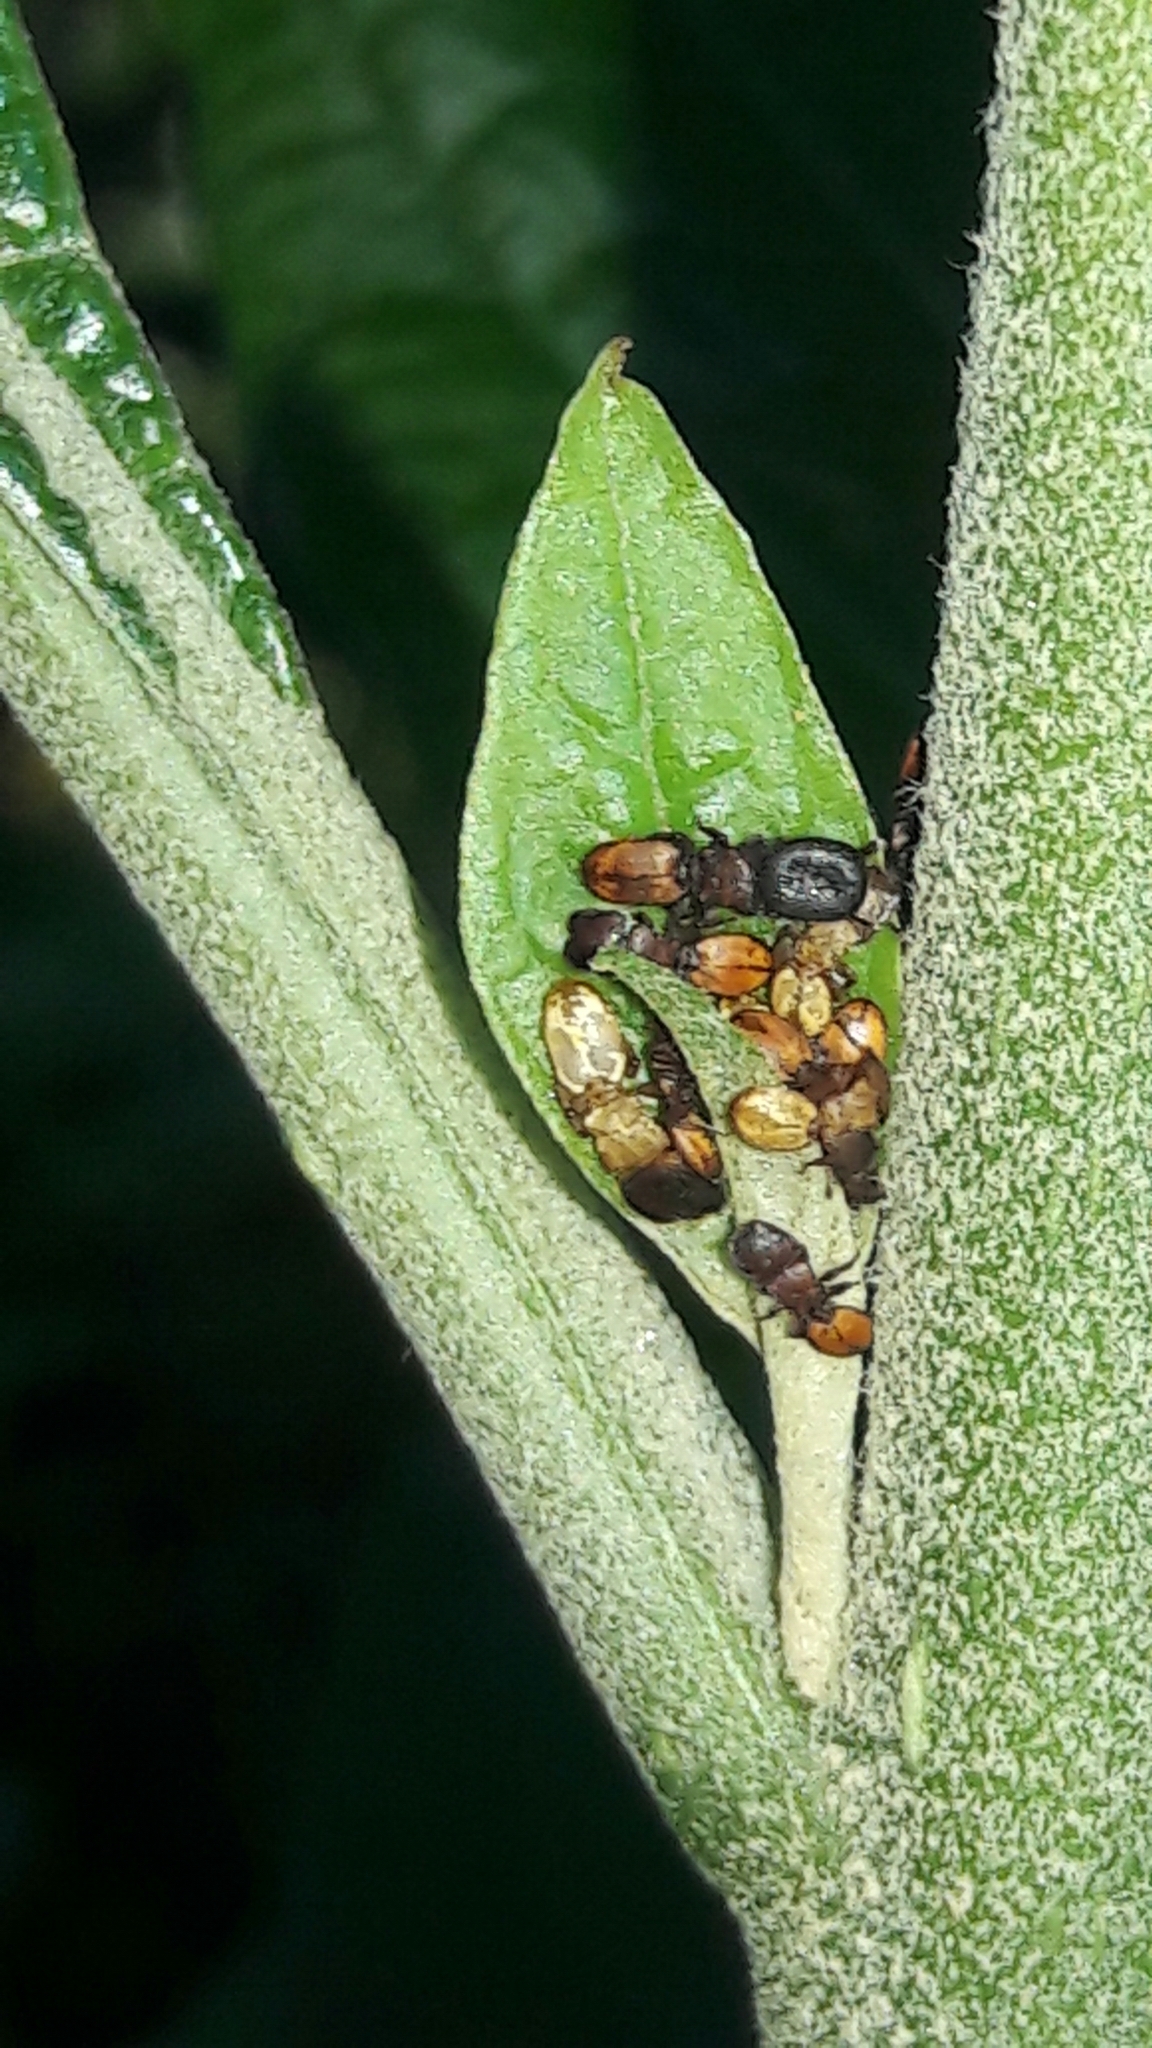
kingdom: Animalia
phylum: Arthropoda
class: Insecta
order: Hymenoptera
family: Formicidae
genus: Cephalotes
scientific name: Cephalotes
